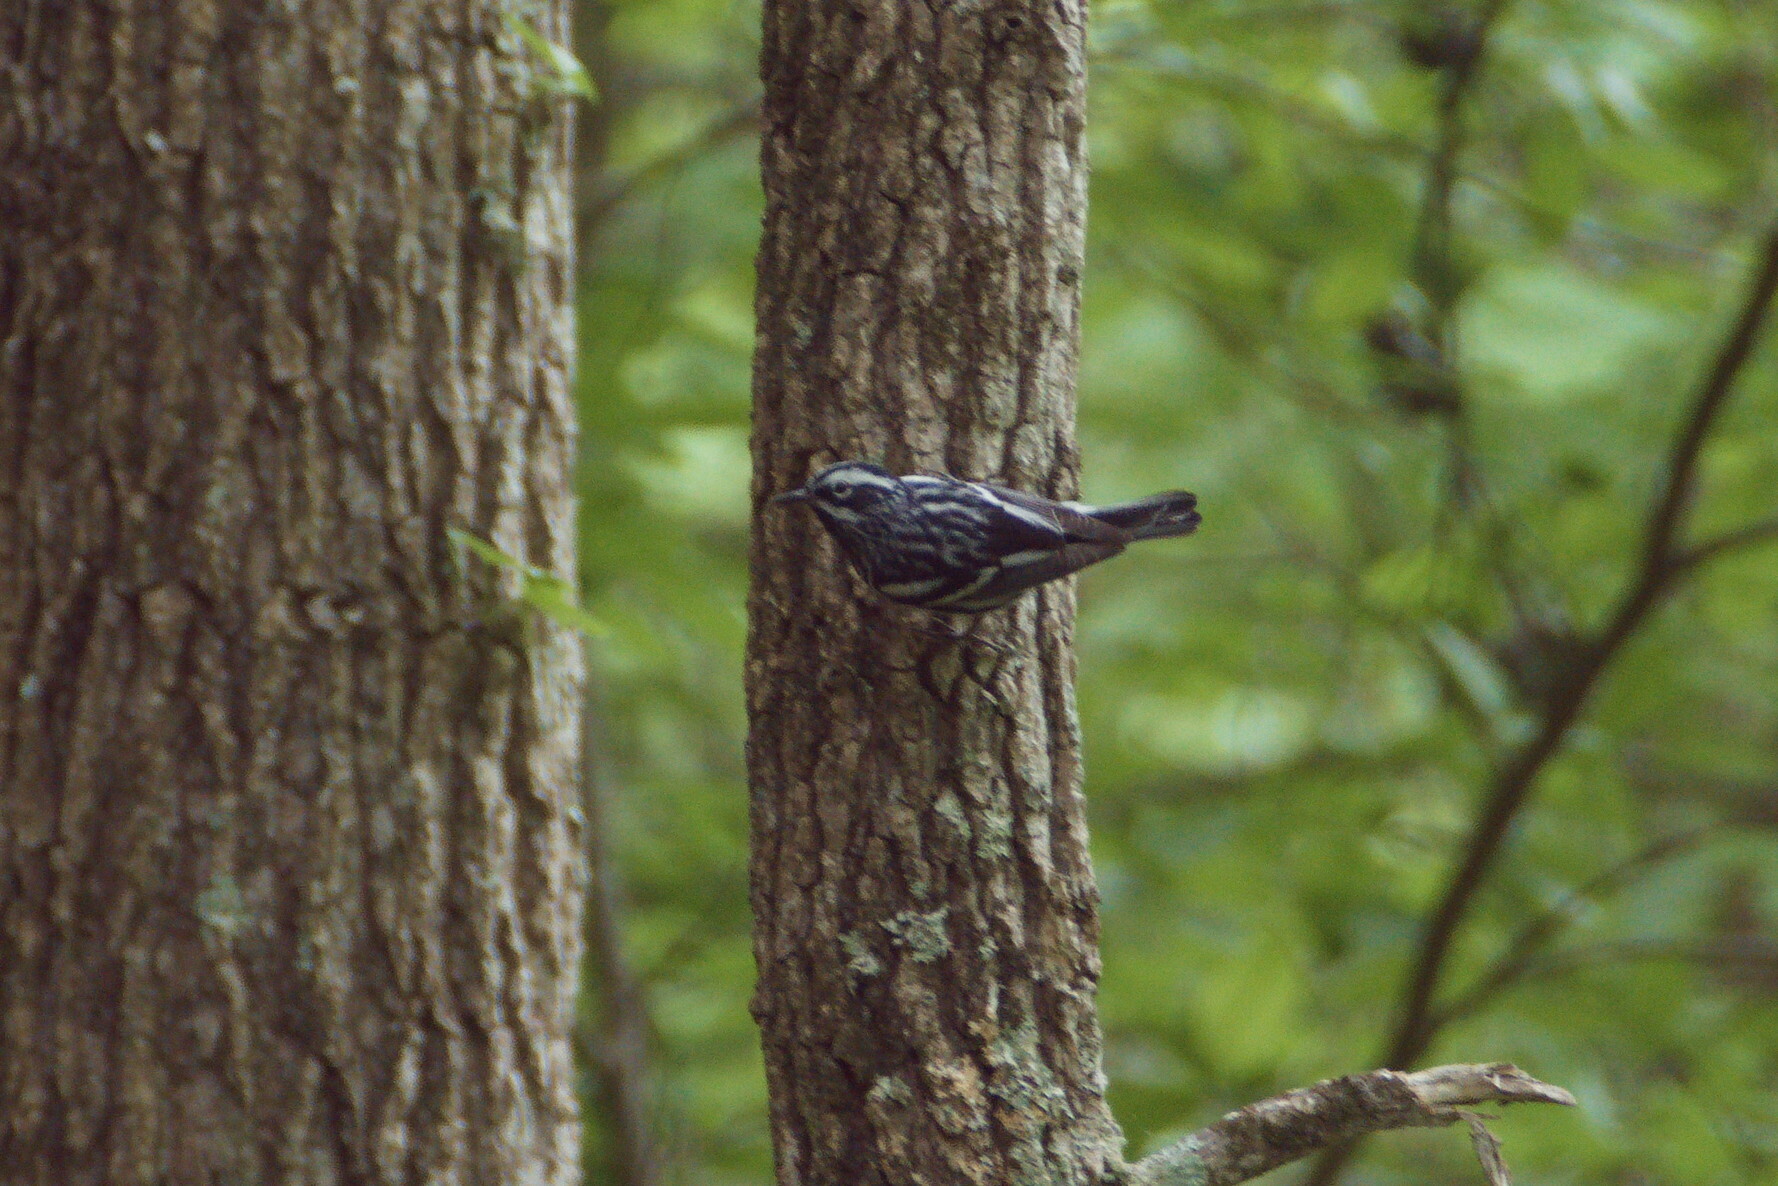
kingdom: Animalia
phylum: Chordata
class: Aves
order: Passeriformes
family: Parulidae
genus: Mniotilta
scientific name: Mniotilta varia
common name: Black-and-white warbler
